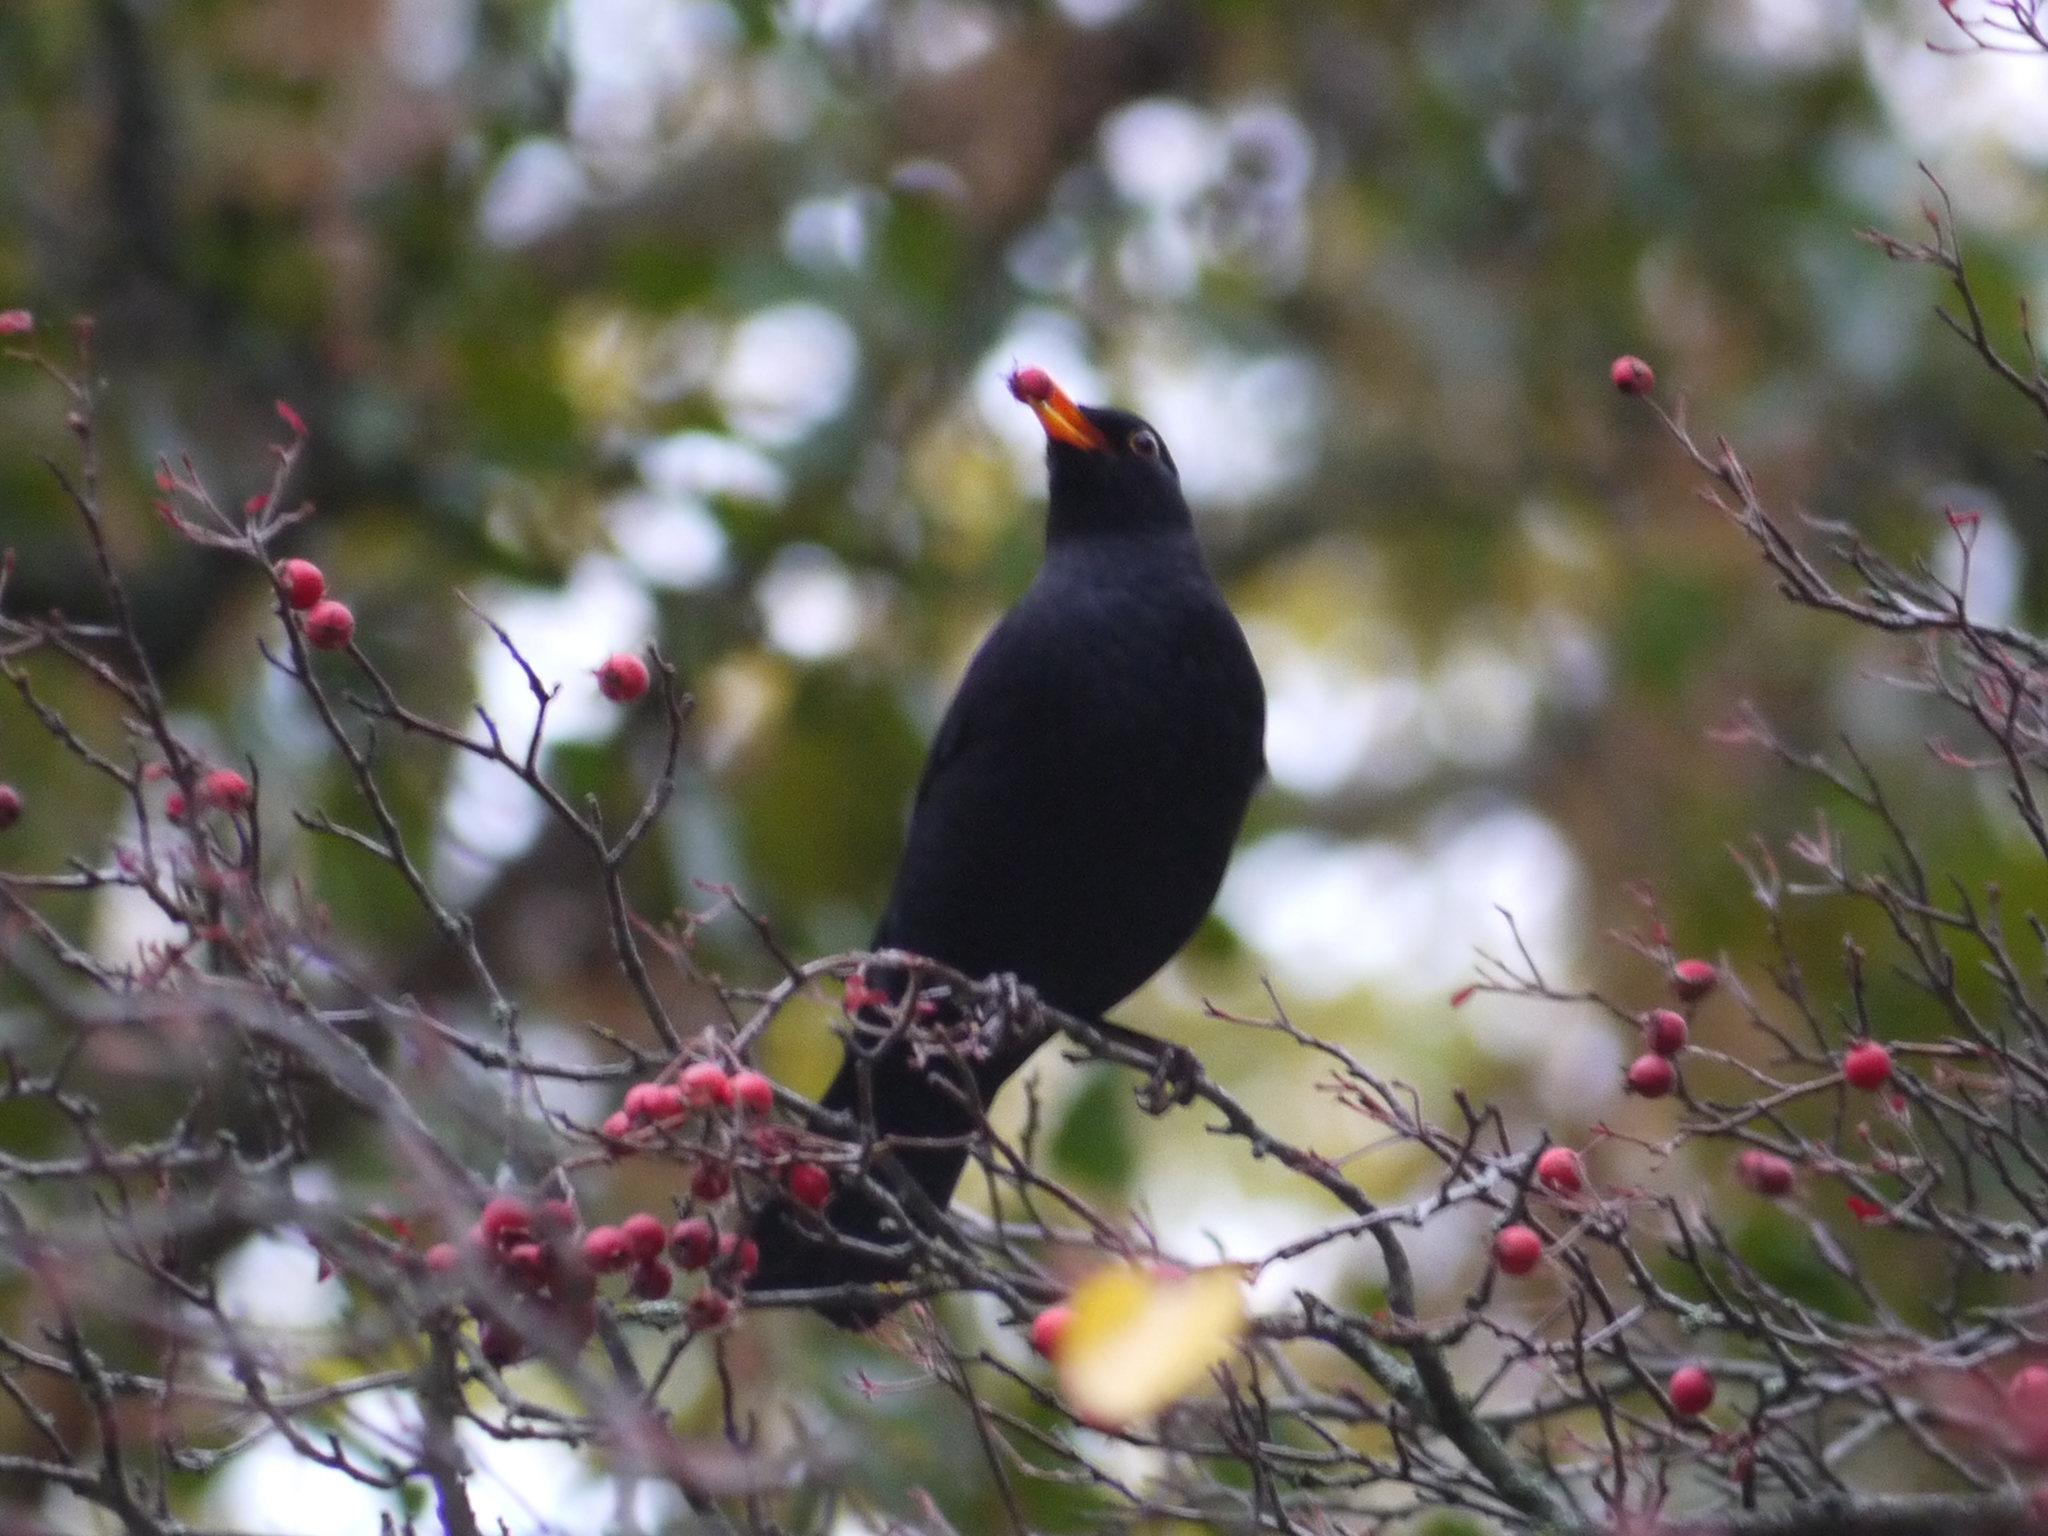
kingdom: Animalia
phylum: Chordata
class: Aves
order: Passeriformes
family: Turdidae
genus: Turdus
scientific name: Turdus merula
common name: Common blackbird
